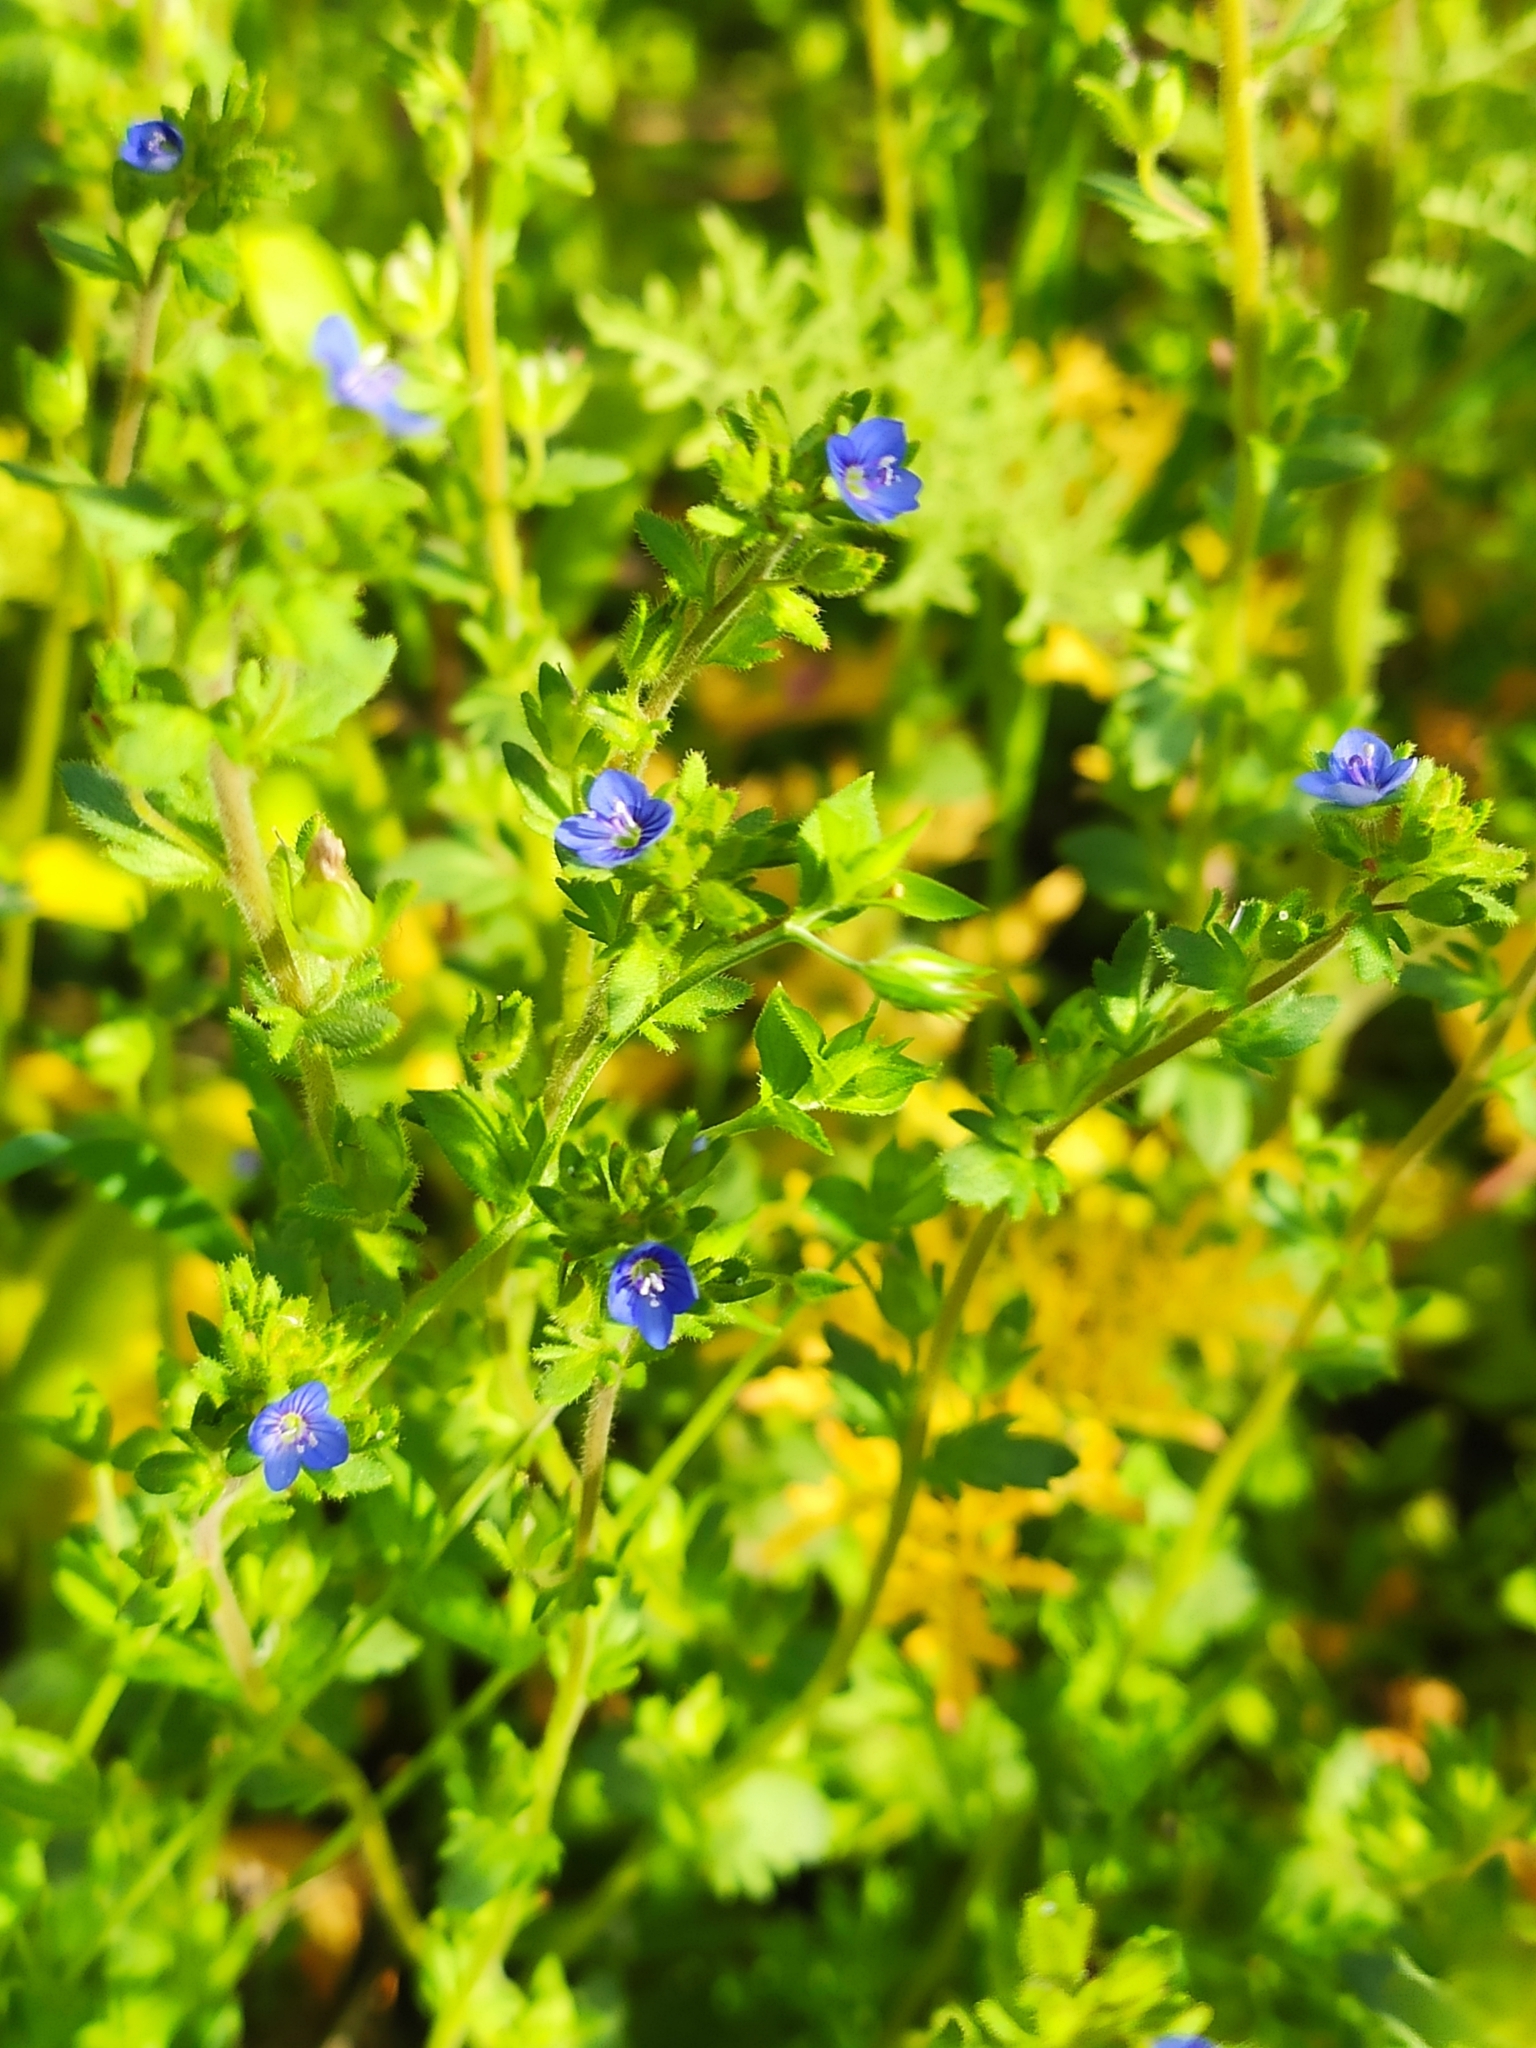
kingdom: Plantae
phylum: Tracheophyta
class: Magnoliopsida
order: Lamiales
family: Plantaginaceae
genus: Veronica
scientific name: Veronica arvensis
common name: Corn speedwell
